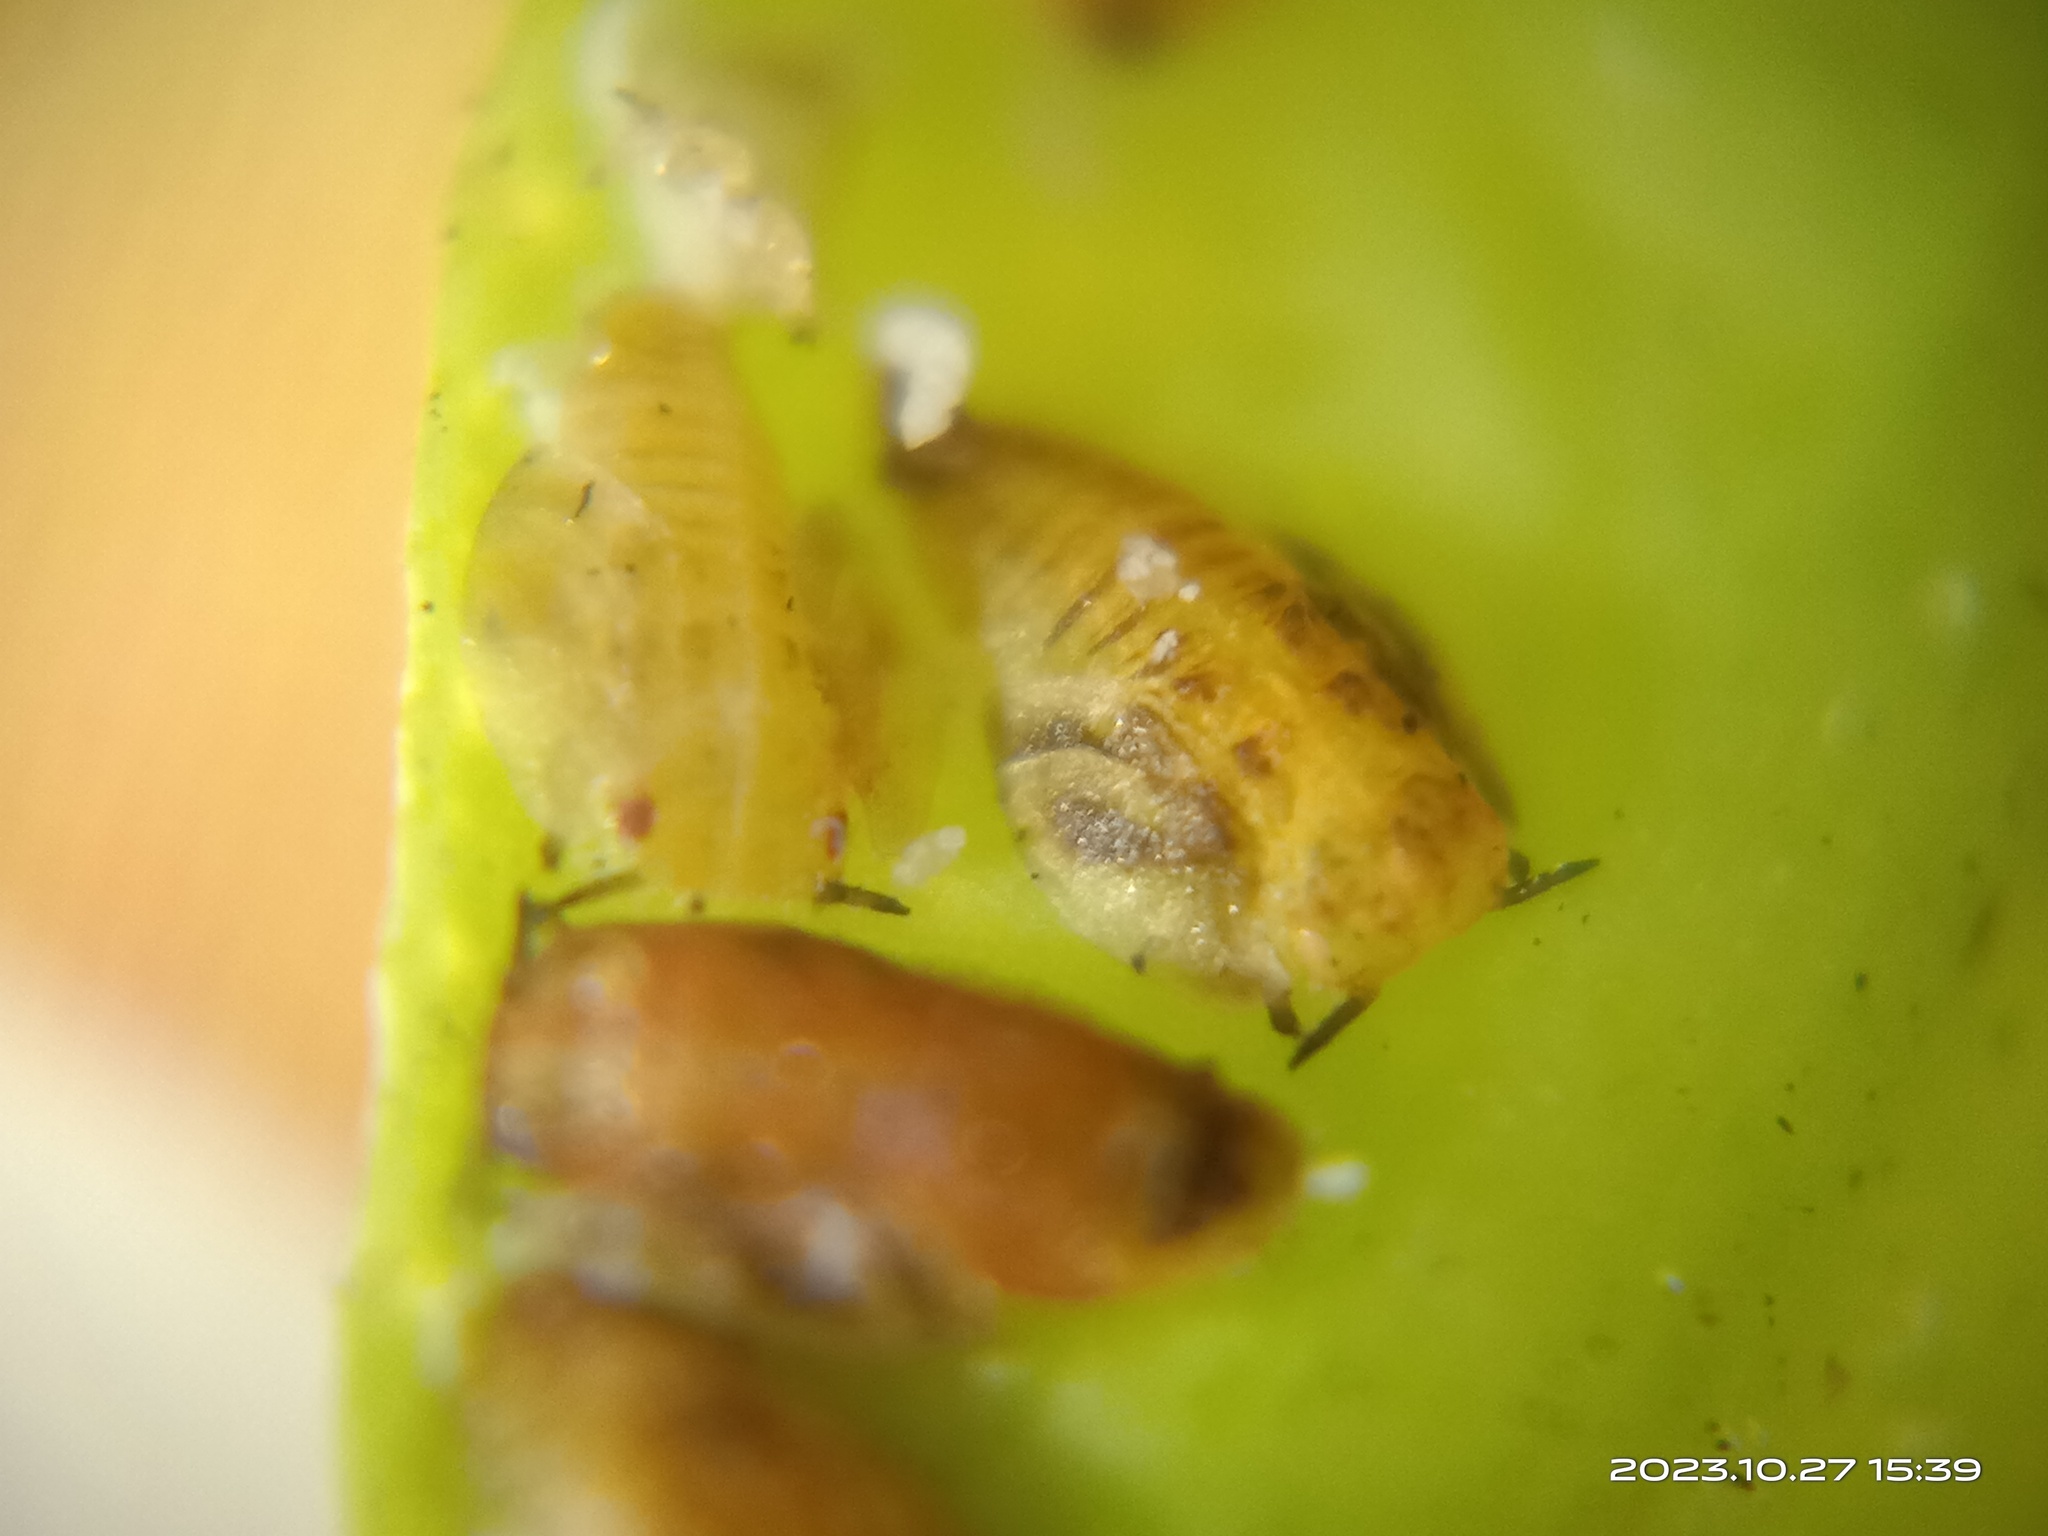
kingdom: Animalia
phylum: Arthropoda
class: Insecta
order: Hemiptera
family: Liviidae
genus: Diaphorina
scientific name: Diaphorina citri
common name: Asian citrus psyllid
